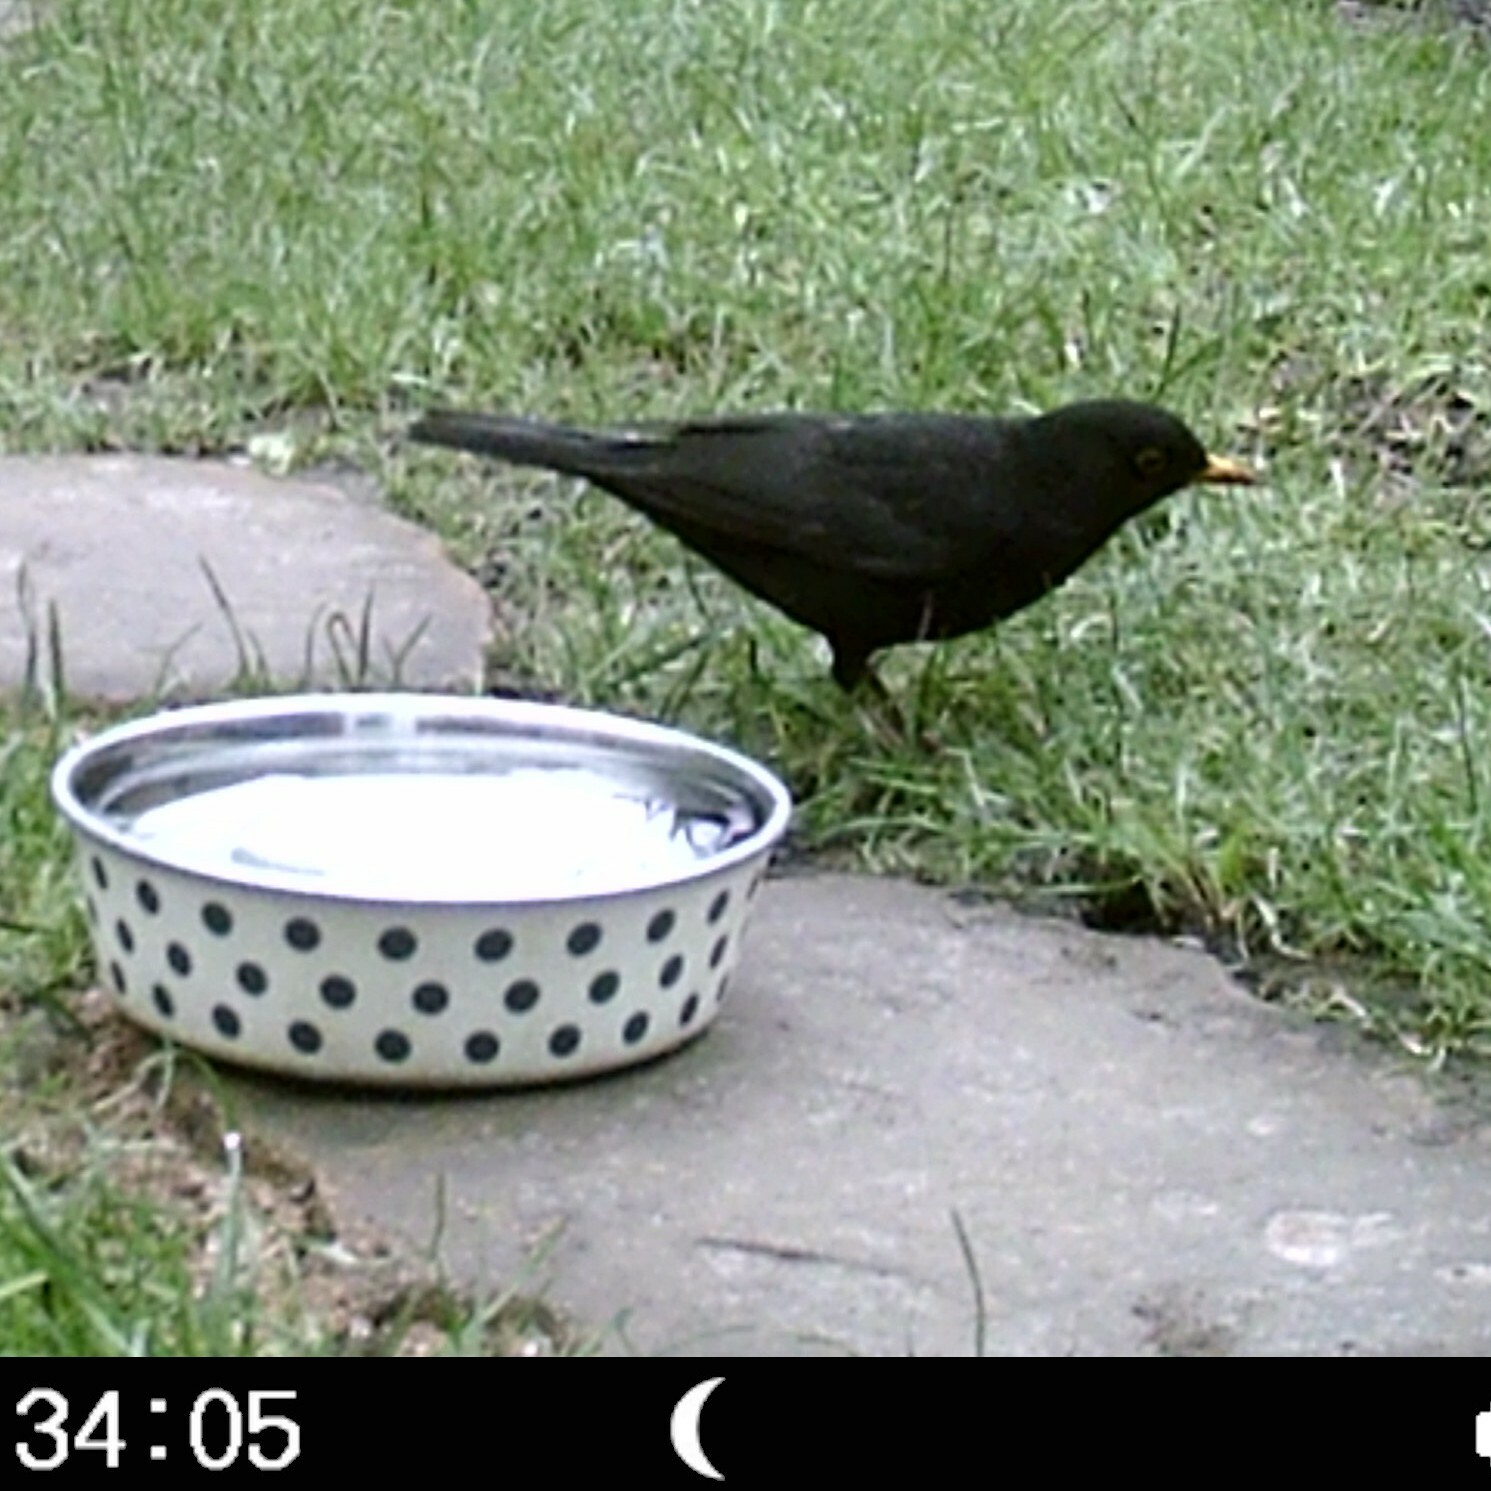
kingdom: Animalia
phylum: Chordata
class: Aves
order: Passeriformes
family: Turdidae
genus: Turdus
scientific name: Turdus merula
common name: Common blackbird
